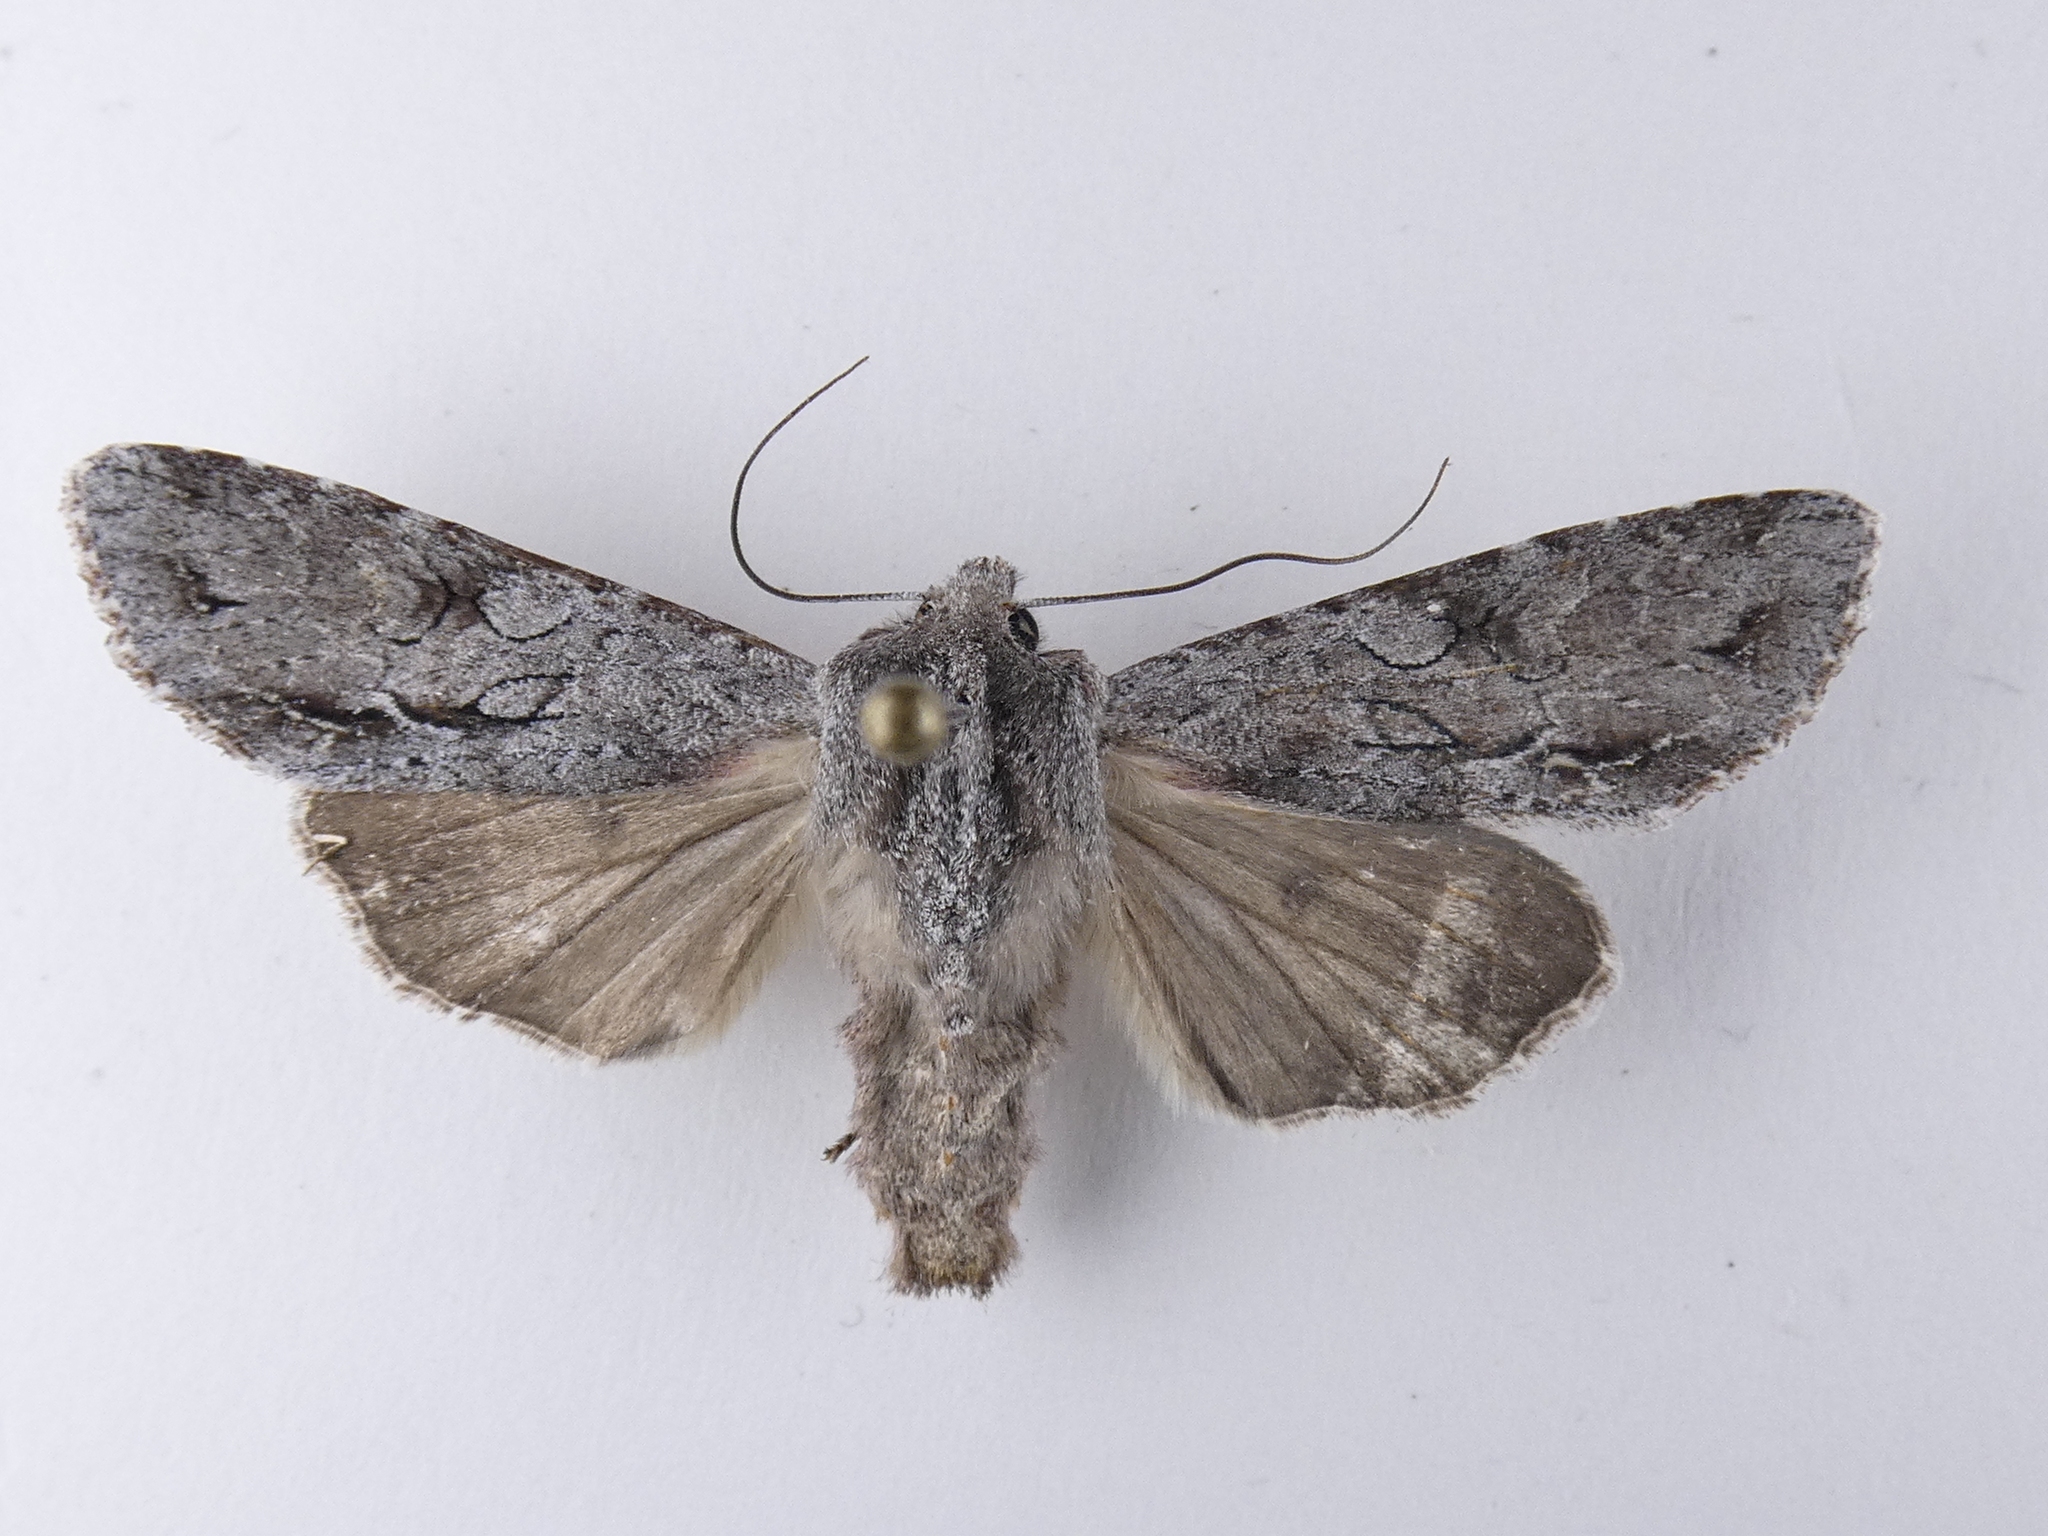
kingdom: Animalia
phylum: Arthropoda
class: Insecta
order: Lepidoptera
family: Noctuidae
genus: Ichneutica
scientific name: Ichneutica
